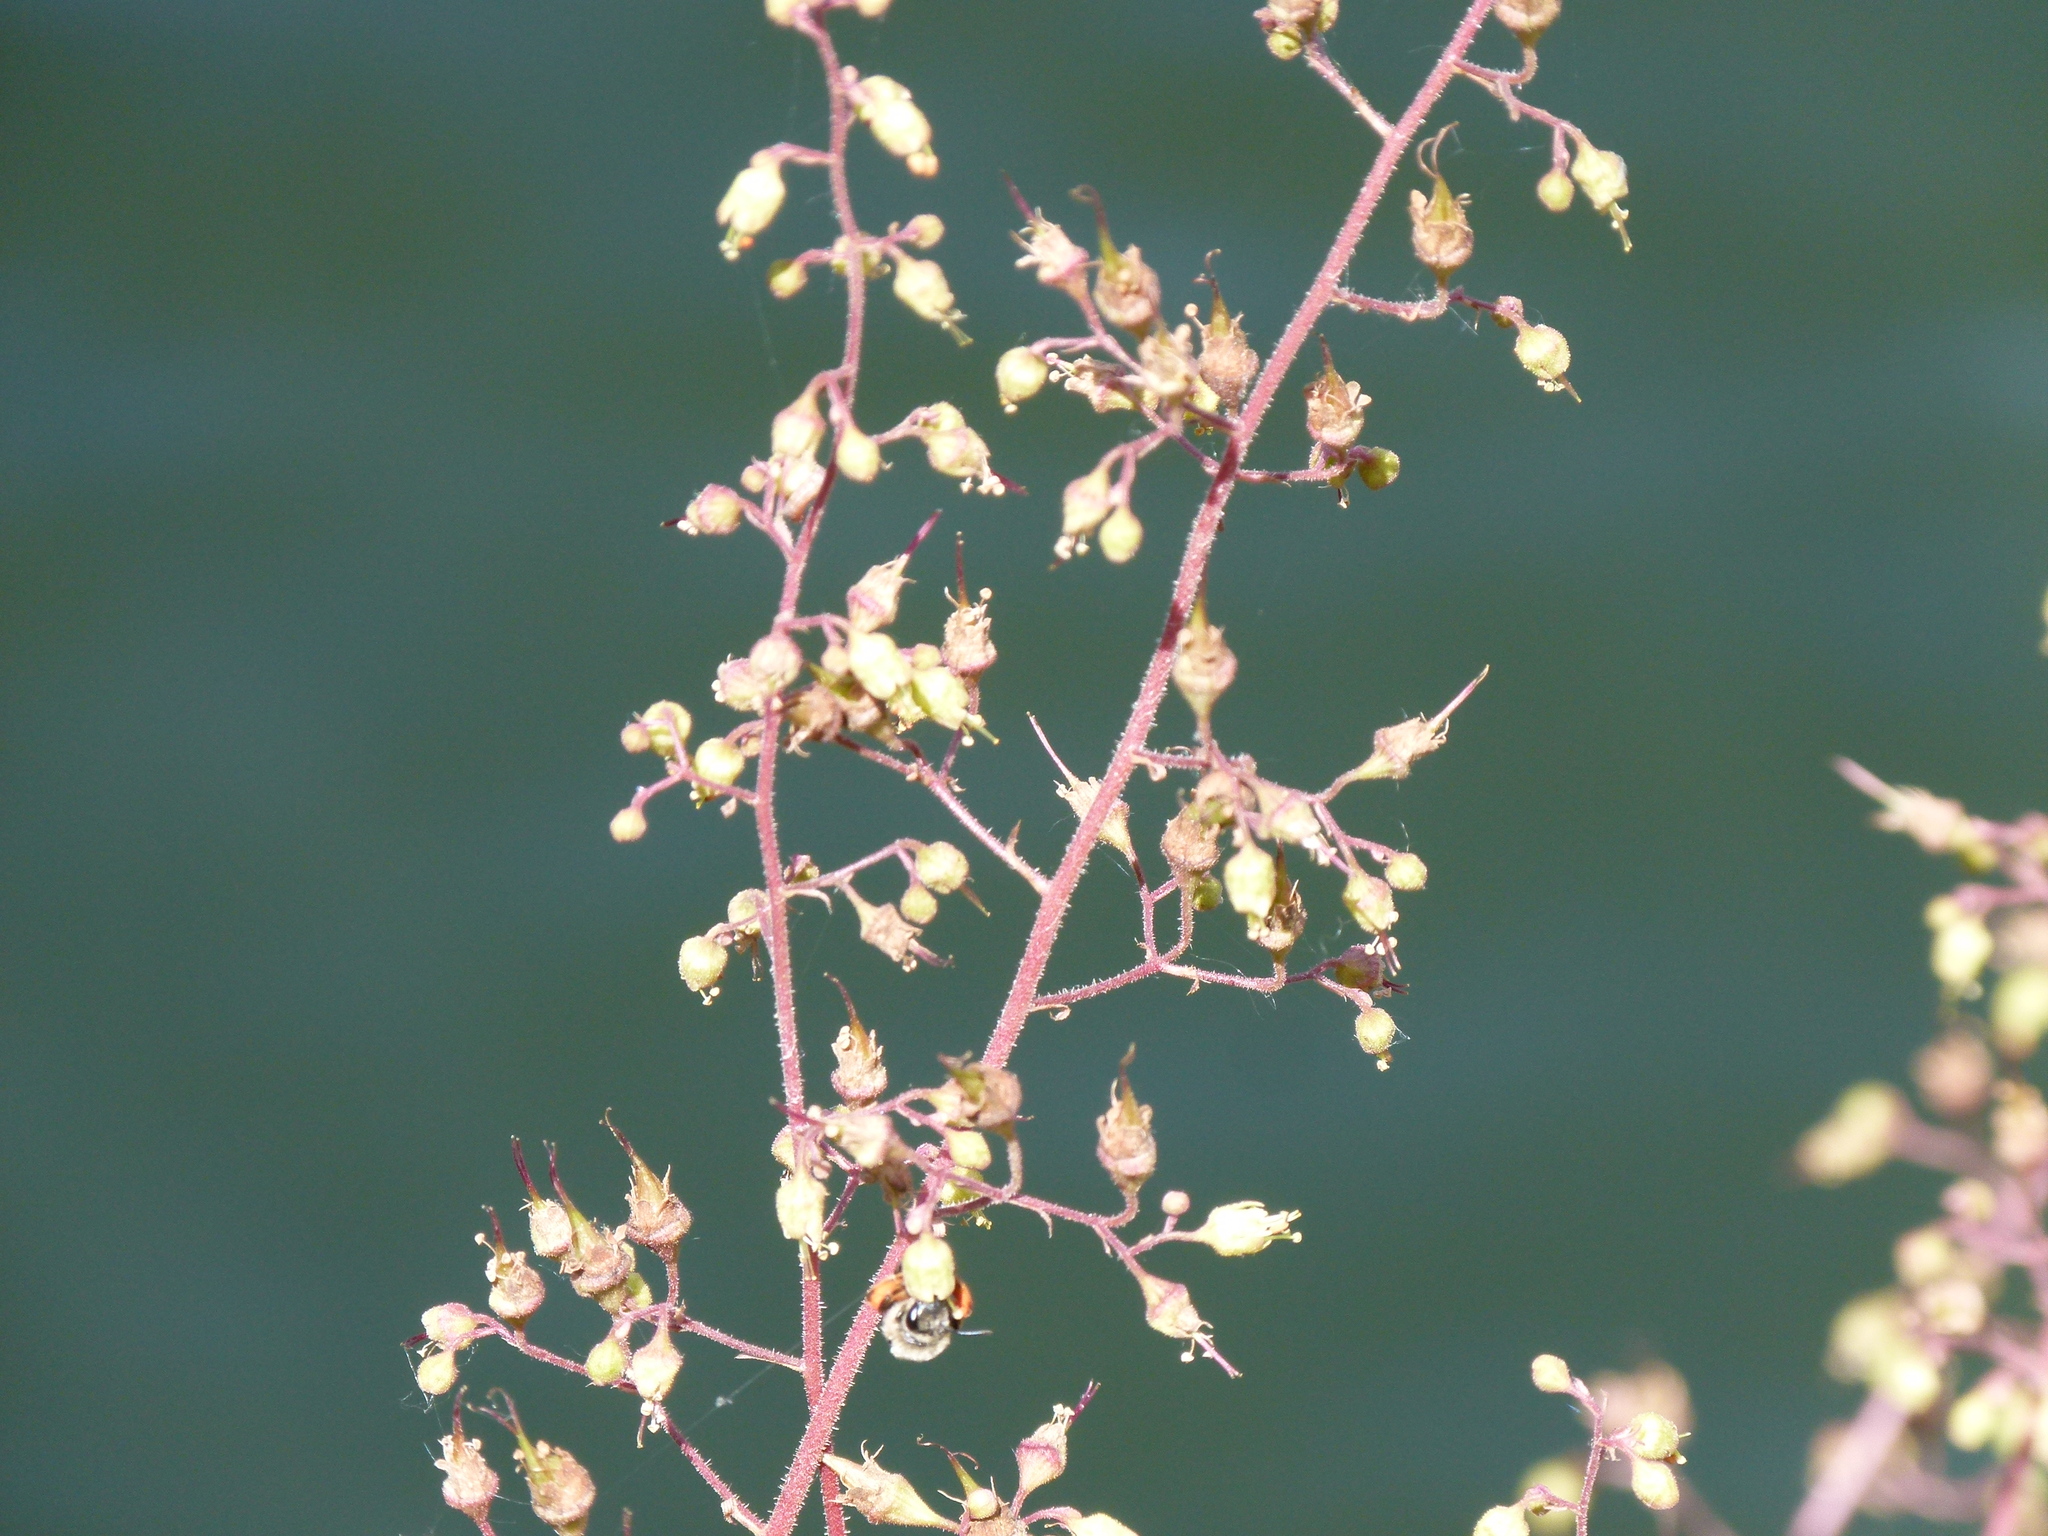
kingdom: Plantae
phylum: Tracheophyta
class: Magnoliopsida
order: Saxifragales
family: Saxifragaceae
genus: Heuchera
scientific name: Heuchera americana
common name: Alumroot
